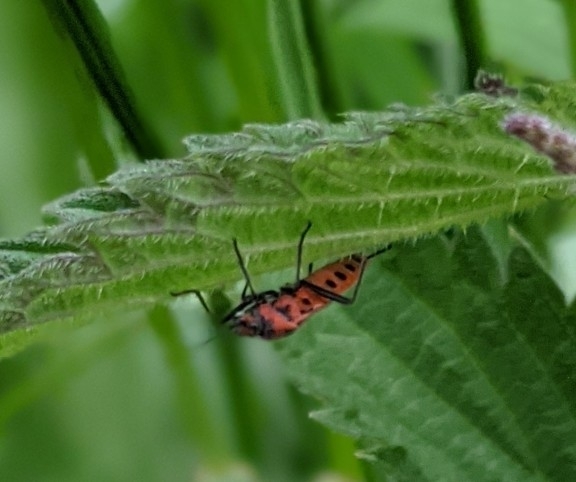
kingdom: Animalia
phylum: Arthropoda
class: Insecta
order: Hemiptera
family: Rhopalidae
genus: Corizus
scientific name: Corizus hyoscyami
